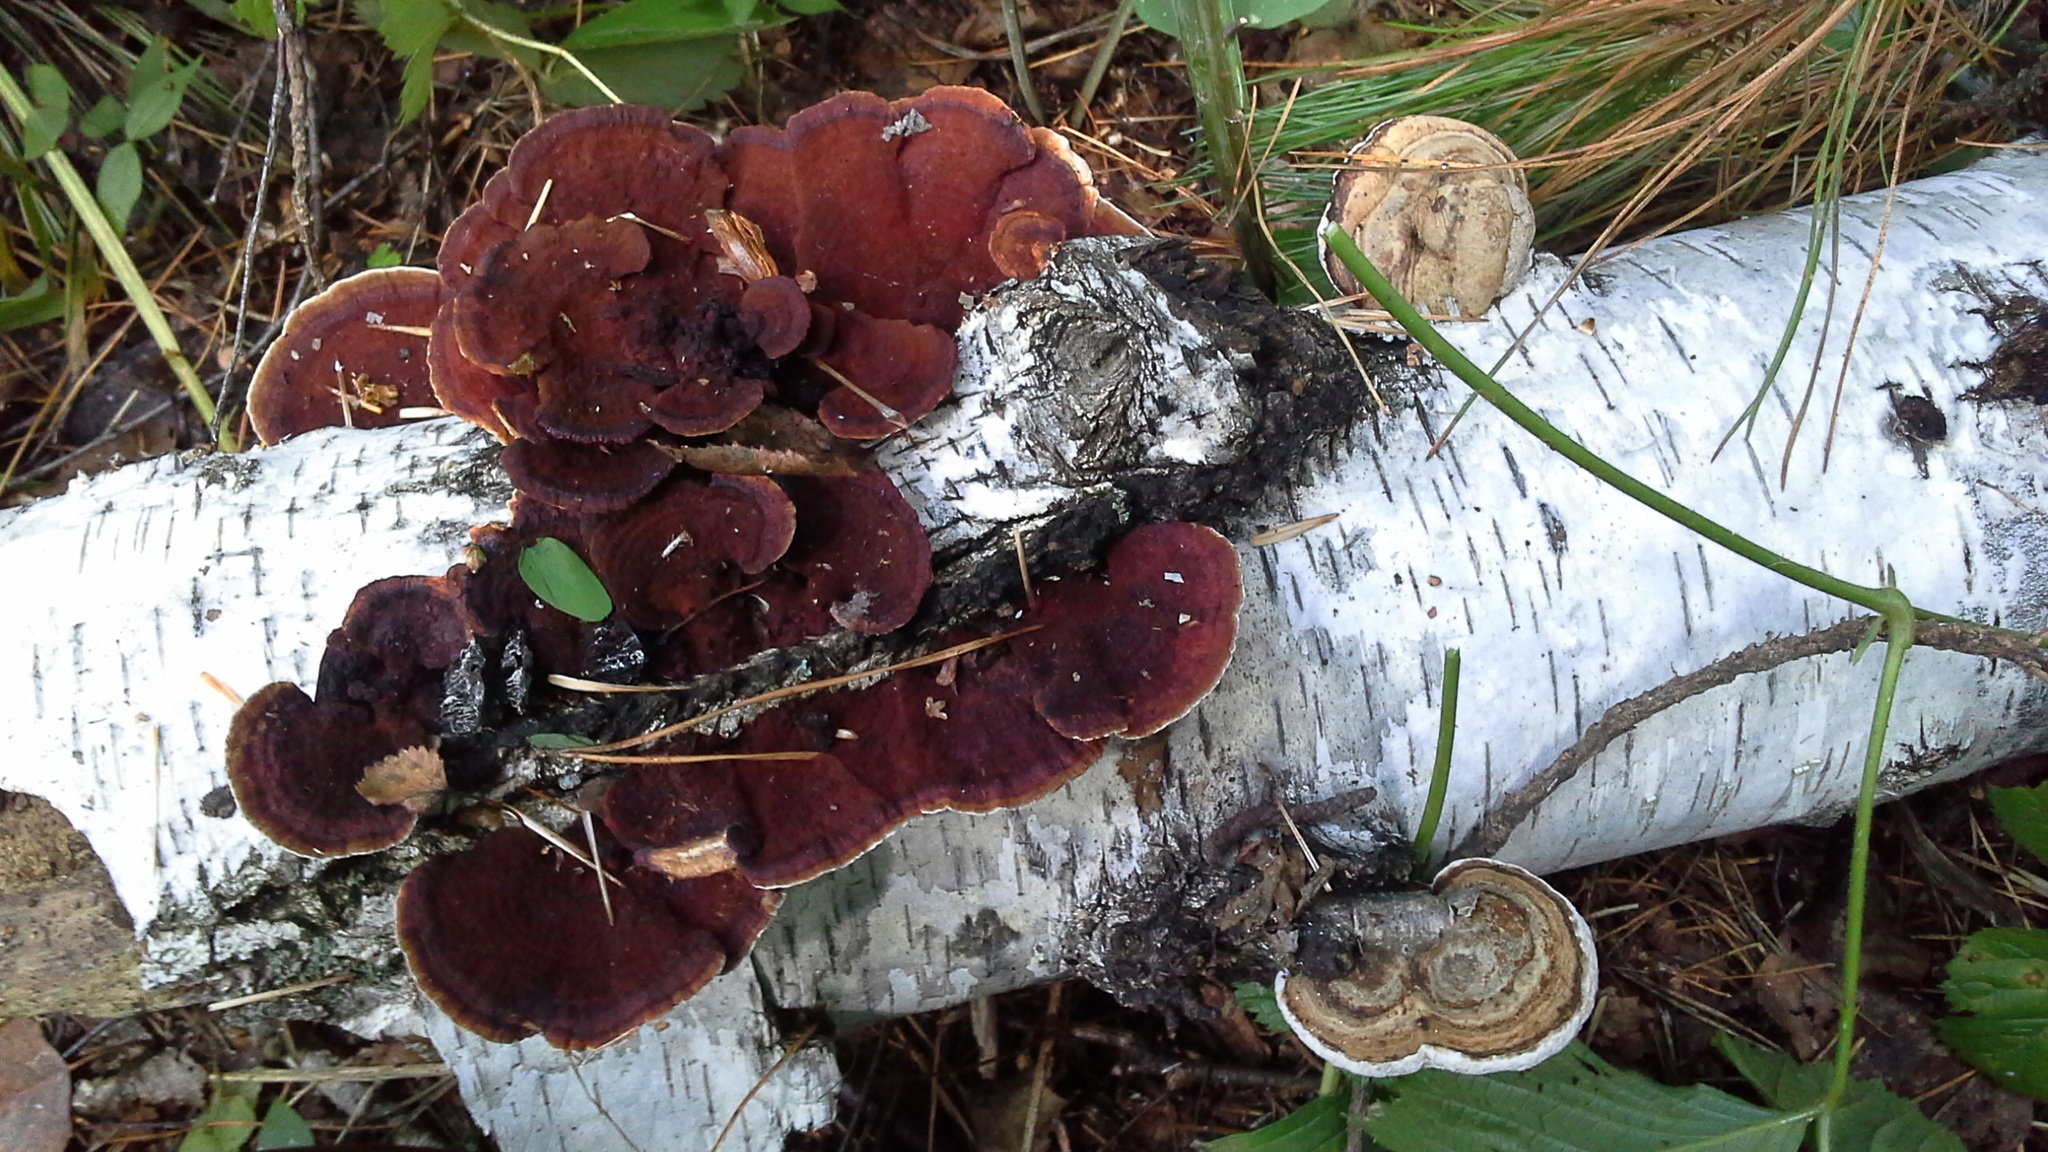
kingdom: Fungi
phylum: Basidiomycota
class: Agaricomycetes
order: Polyporales
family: Polyporaceae
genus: Daedaleopsis
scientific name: Daedaleopsis tricolor
